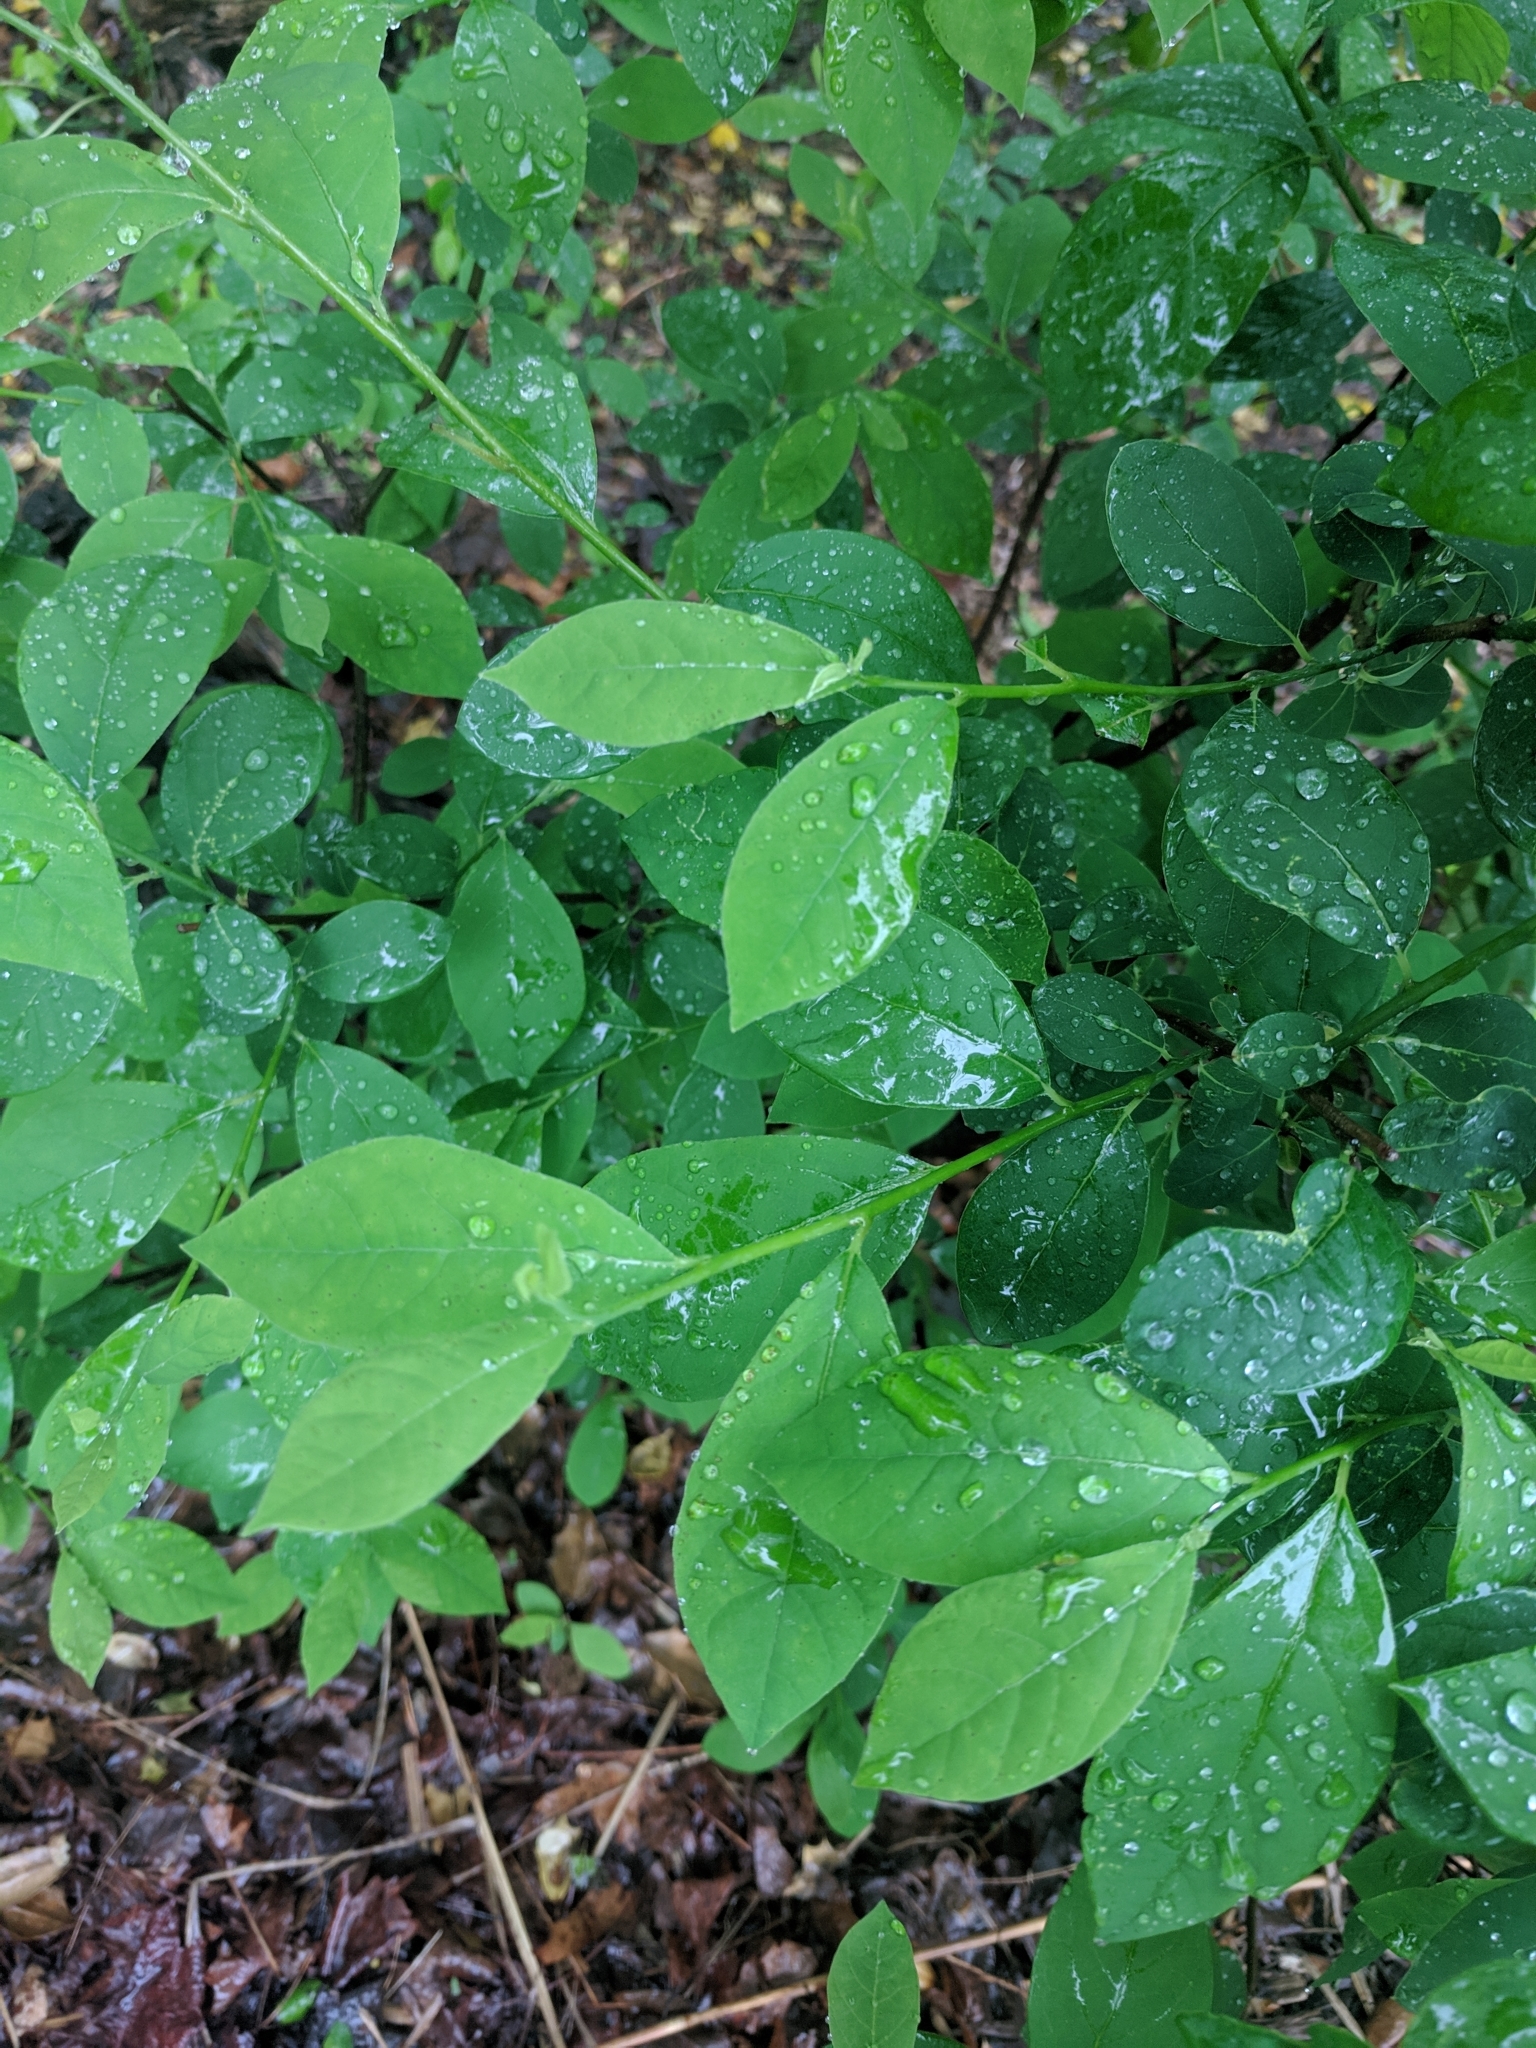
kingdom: Plantae
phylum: Tracheophyta
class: Magnoliopsida
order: Laurales
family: Lauraceae
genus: Lindera
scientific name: Lindera benzoin
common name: Spicebush
